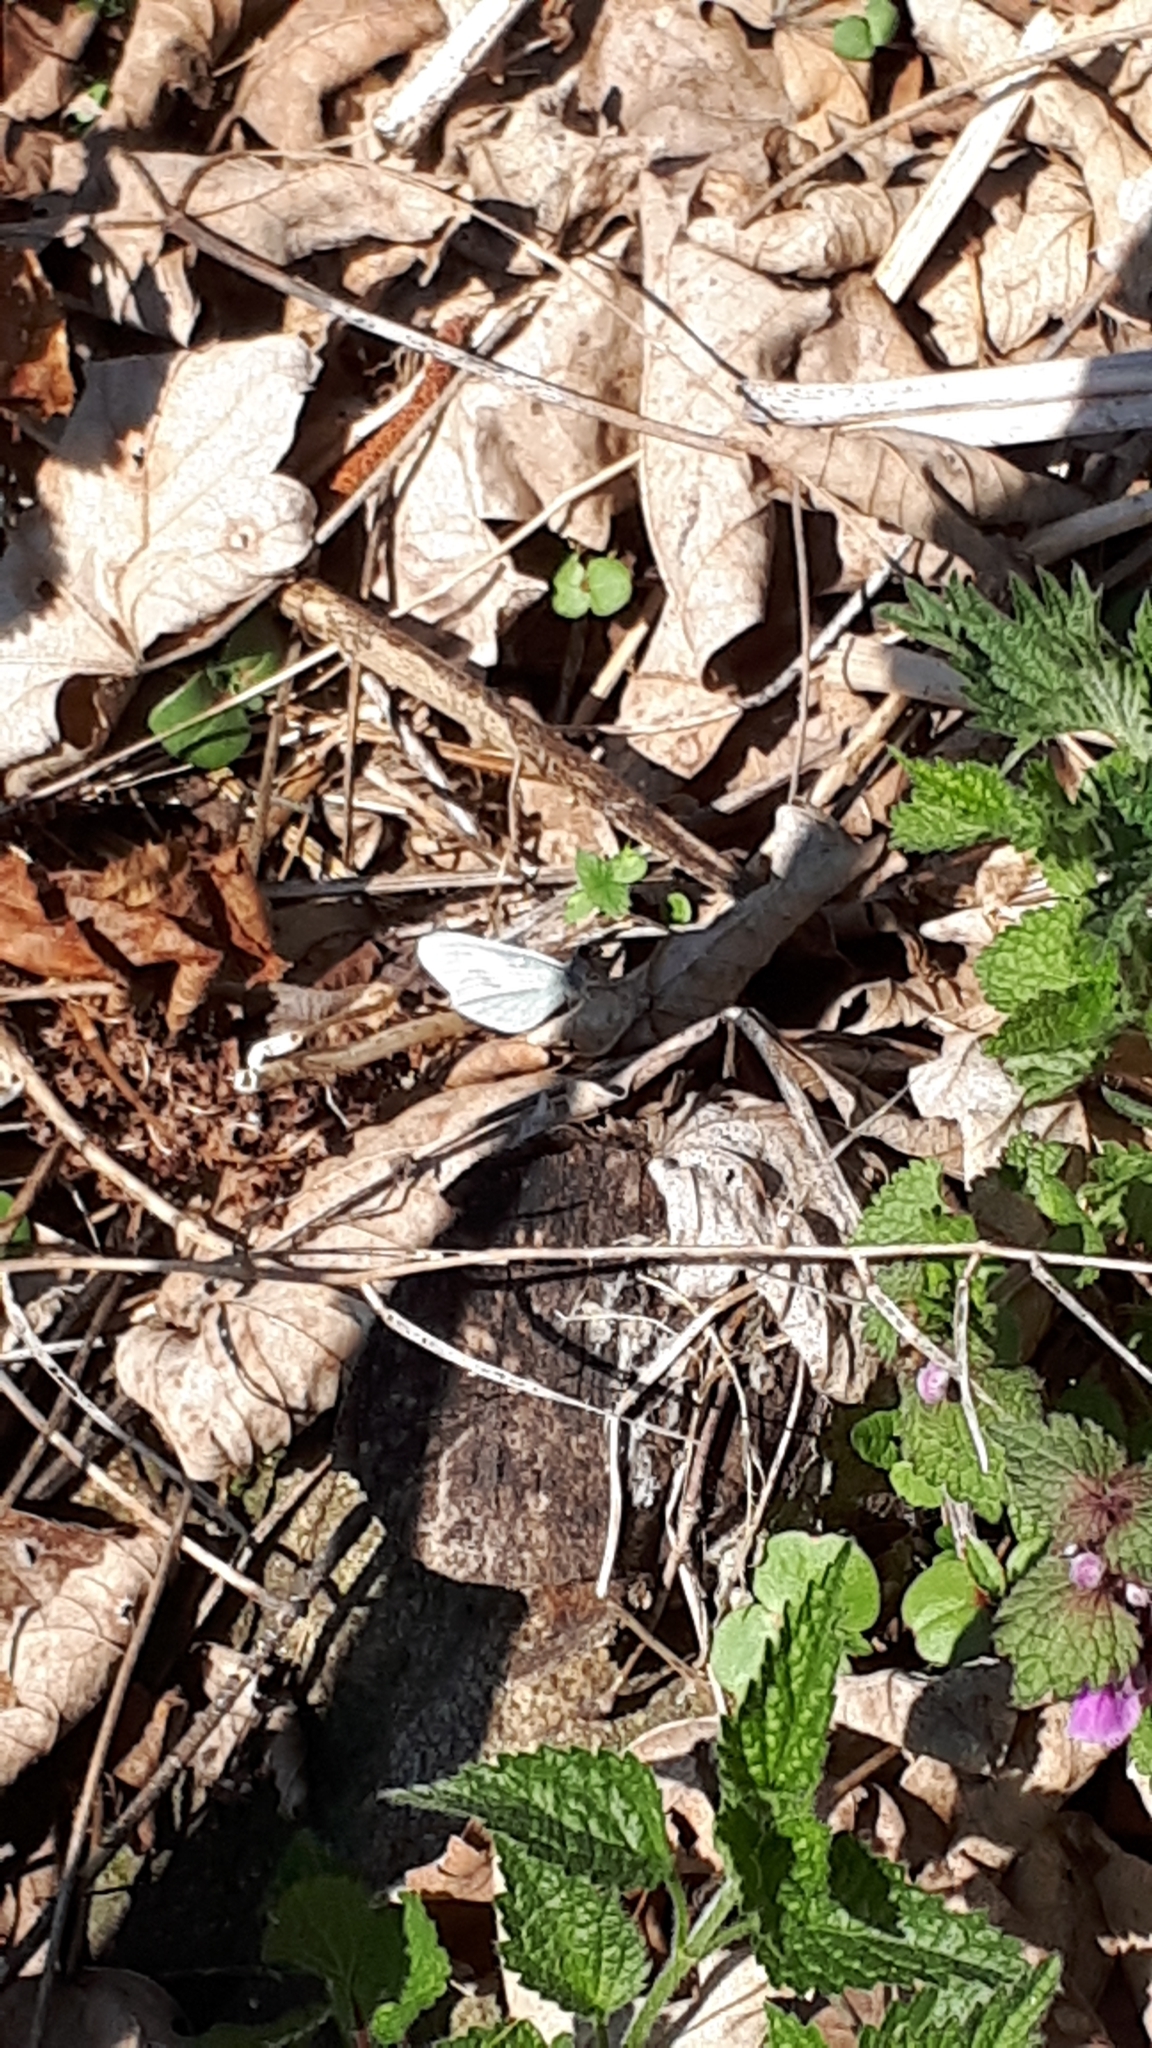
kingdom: Animalia
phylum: Arthropoda
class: Insecta
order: Lepidoptera
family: Pieridae
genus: Leptidea
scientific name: Leptidea
